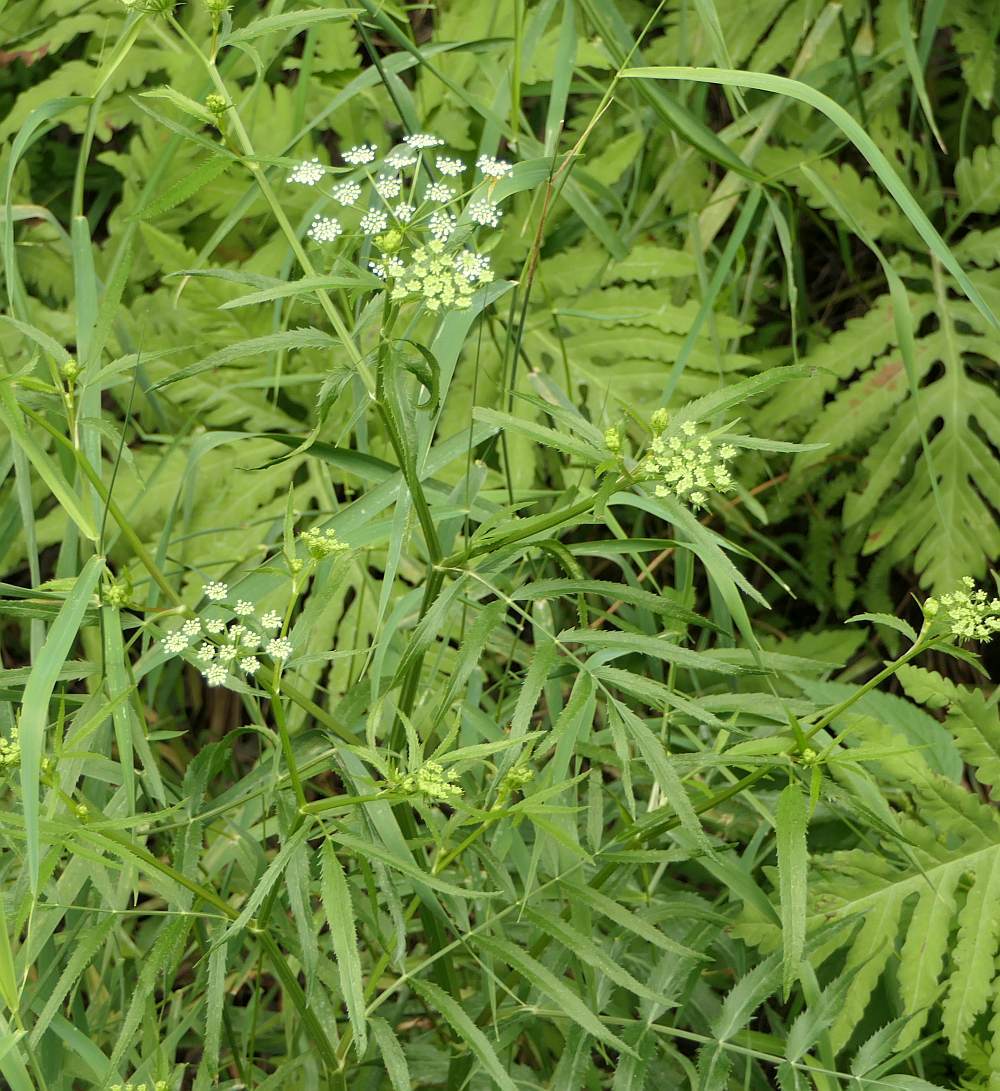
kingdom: Plantae
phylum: Tracheophyta
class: Magnoliopsida
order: Apiales
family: Apiaceae
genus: Sium
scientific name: Sium suave
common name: Hemlock water-parsnip
